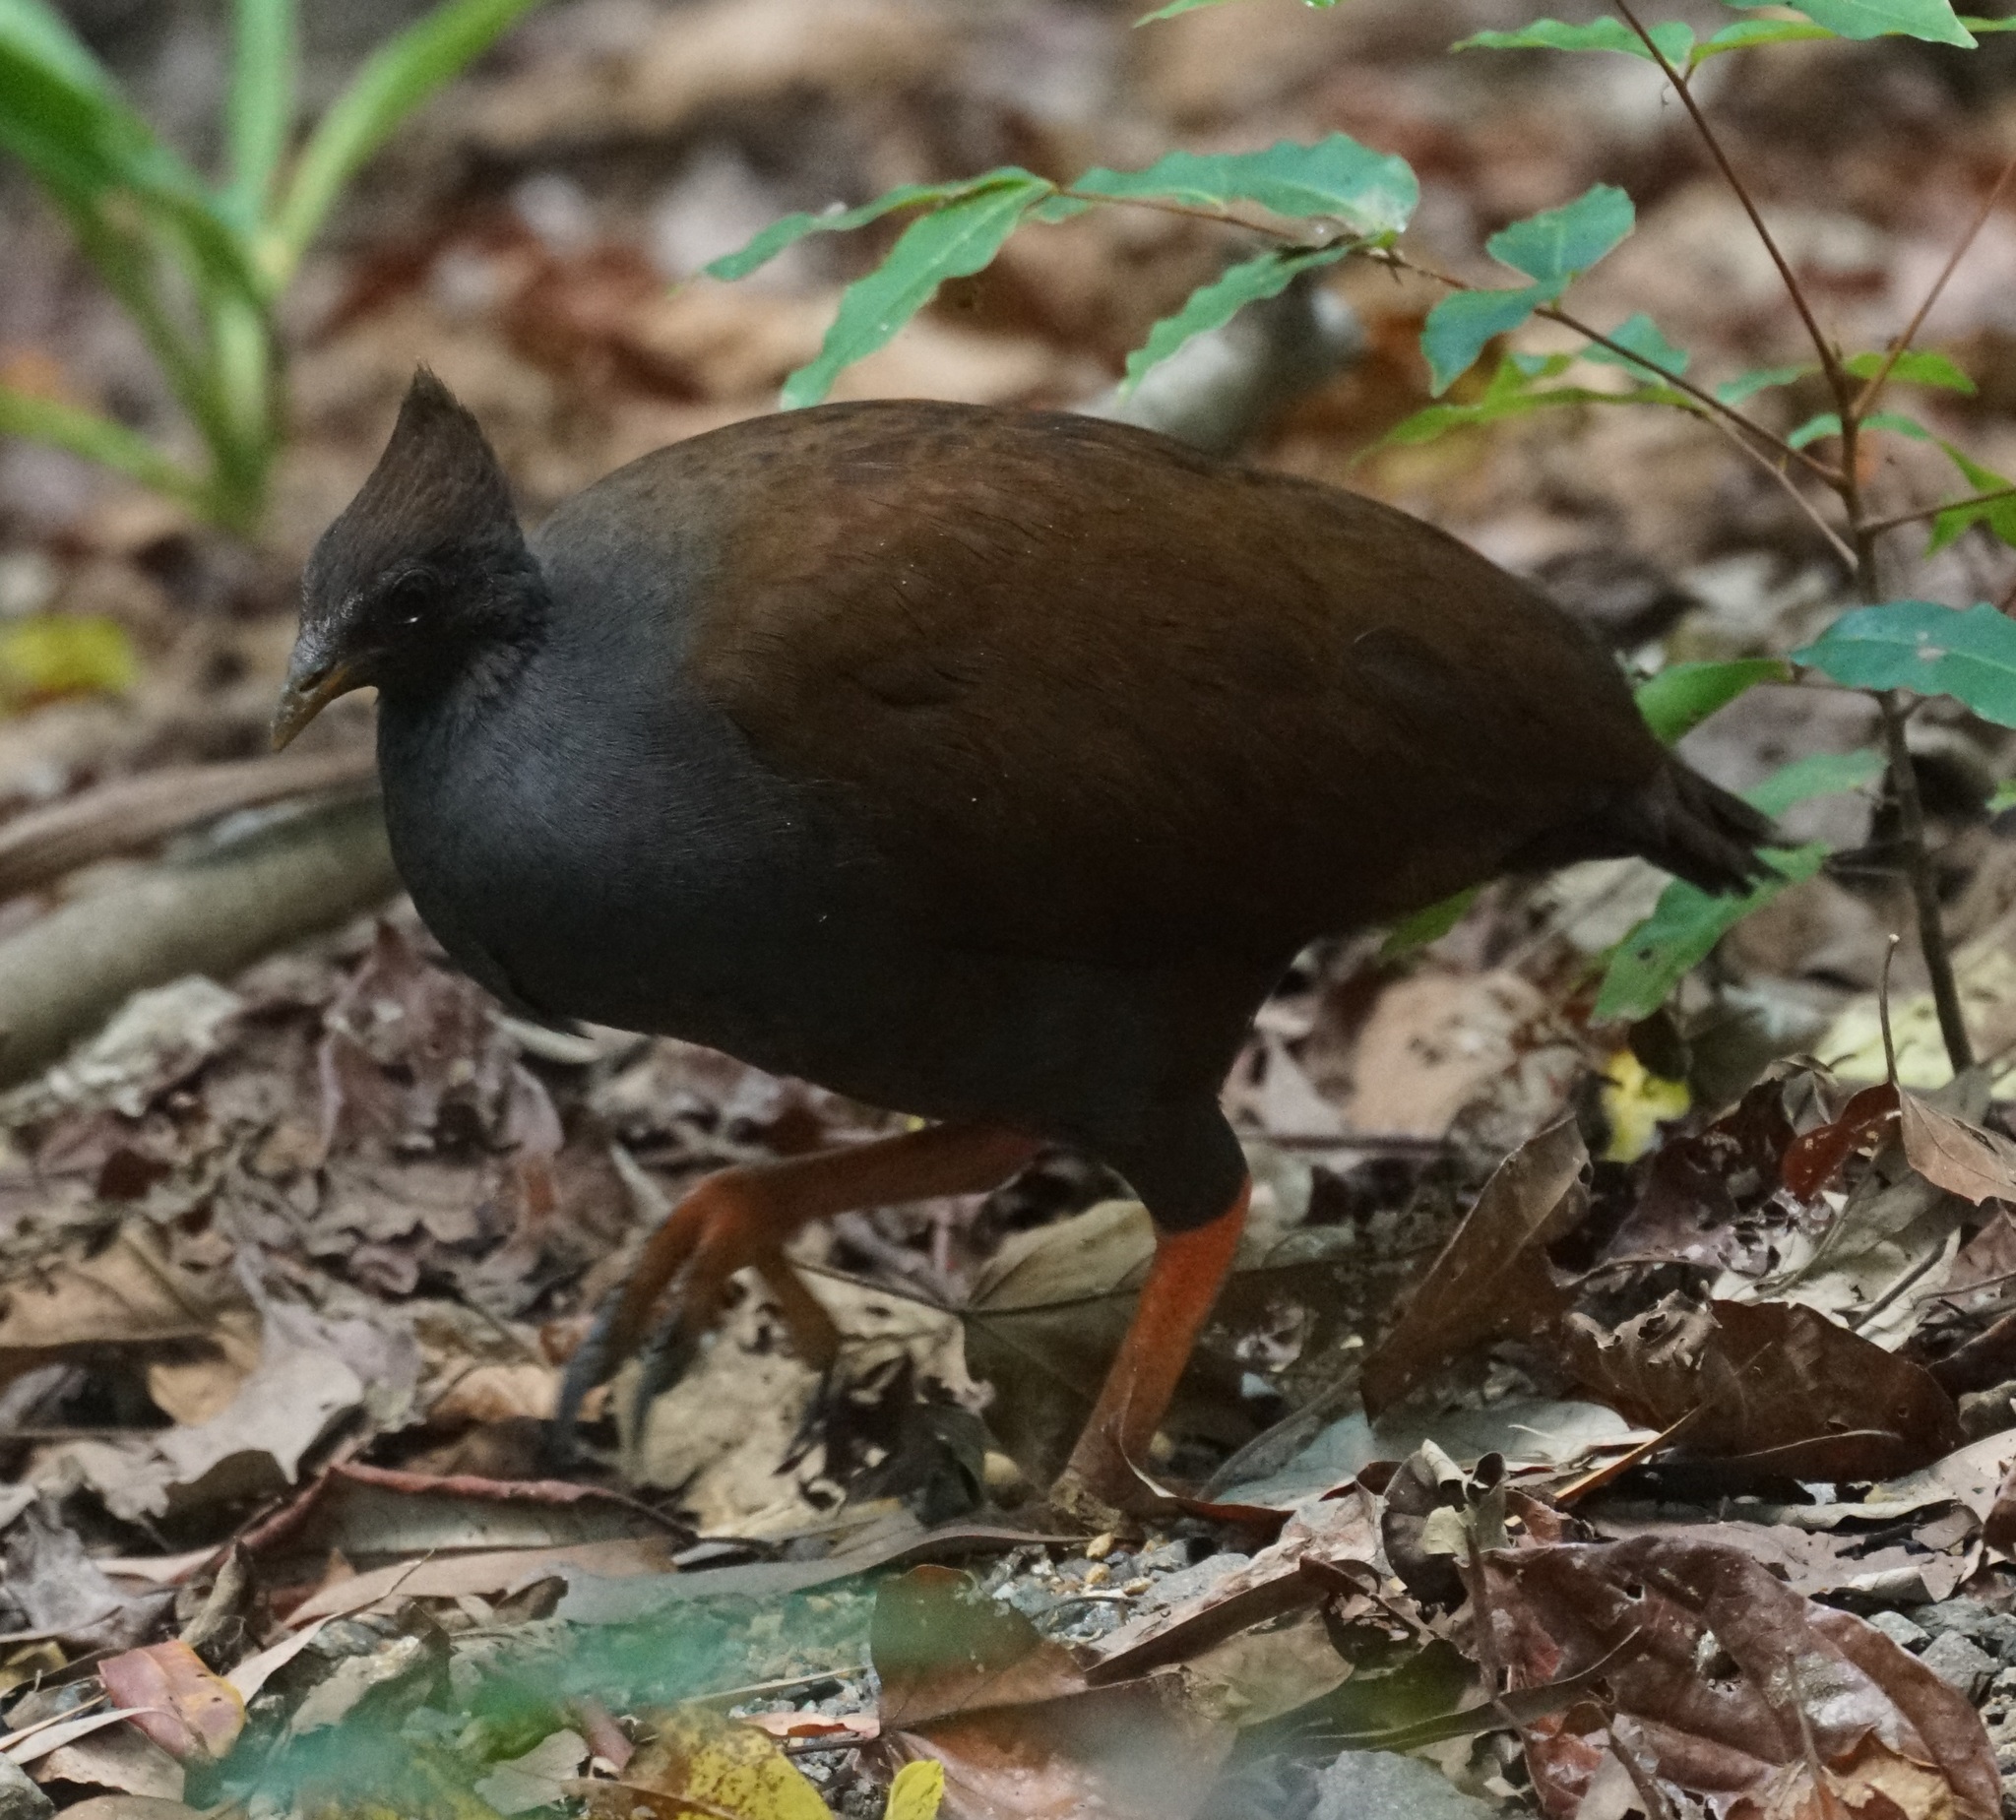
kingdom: Animalia
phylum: Chordata
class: Aves
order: Galliformes
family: Megapodiidae
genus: Megapodius
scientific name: Megapodius reinwardt
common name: Orange-footed scrubfowl
